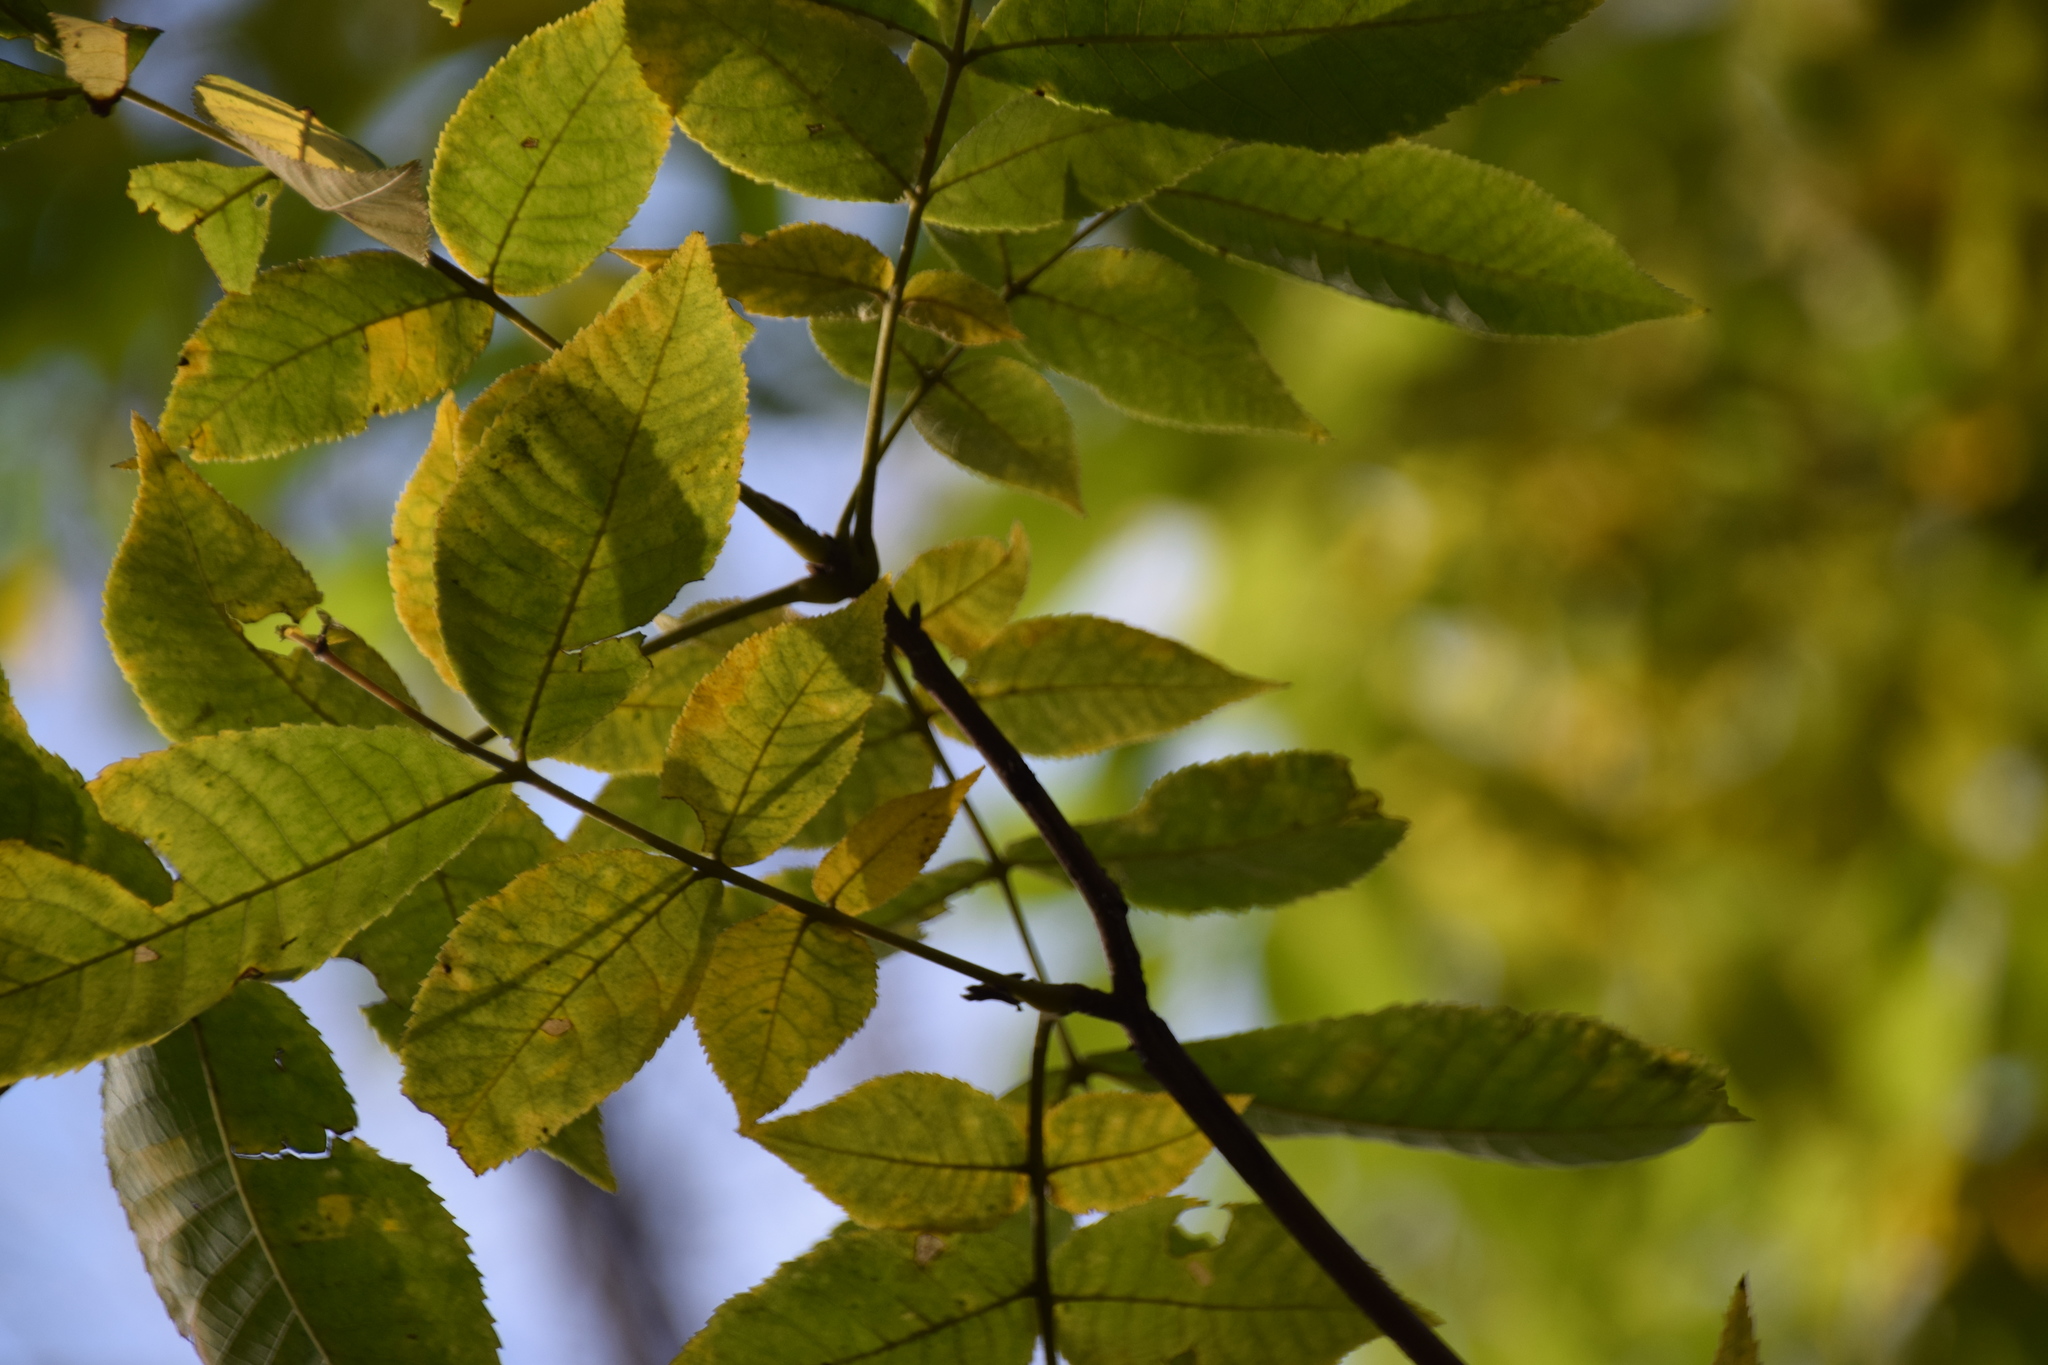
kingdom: Plantae
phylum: Tracheophyta
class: Magnoliopsida
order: Fagales
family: Juglandaceae
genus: Carya
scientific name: Carya cordiformis
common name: Bitternut hickory
